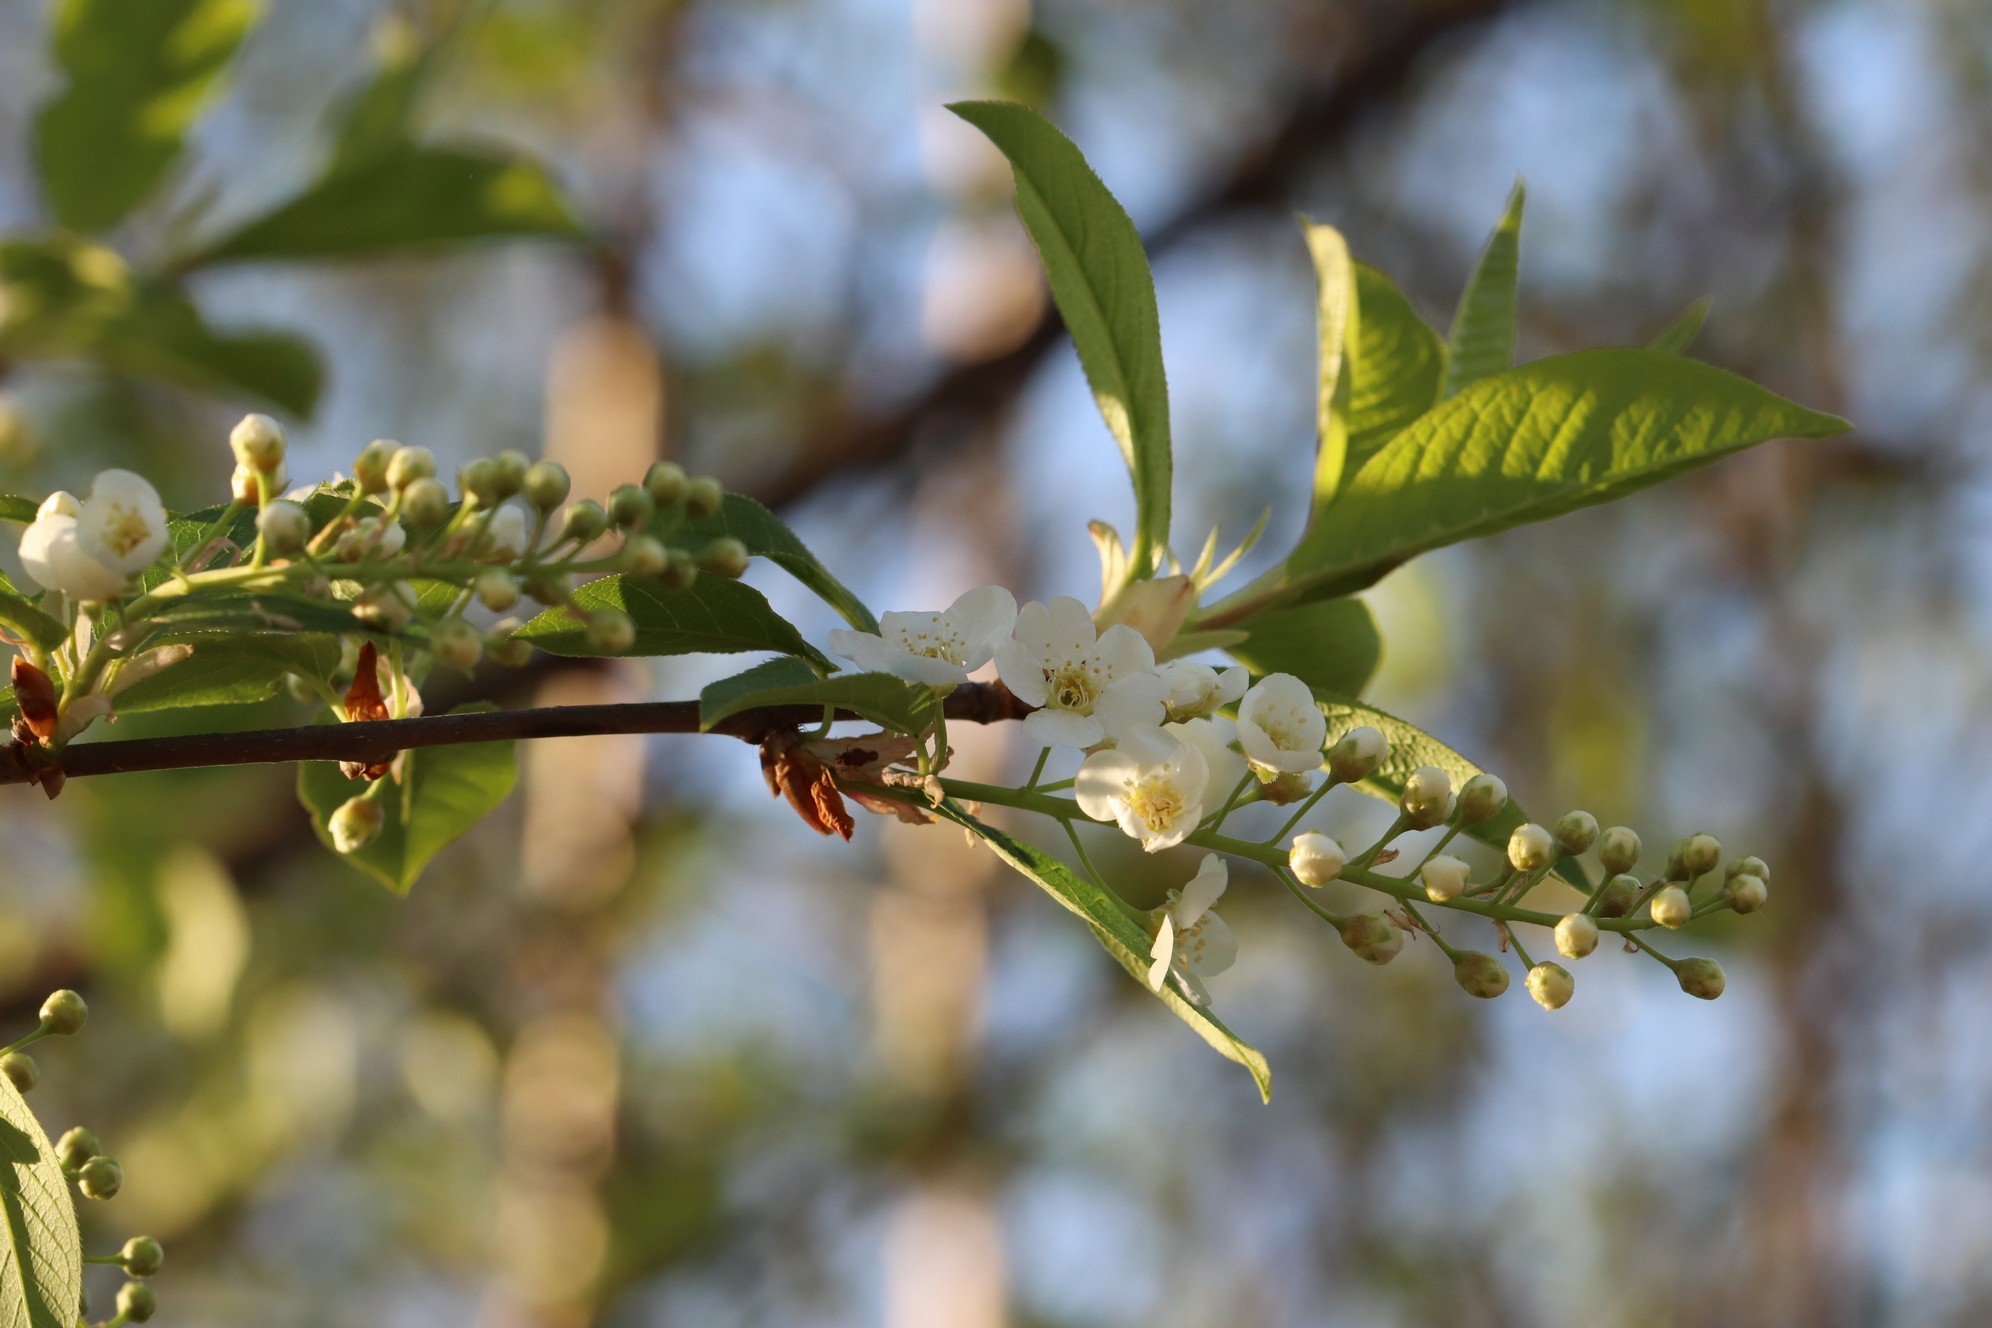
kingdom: Plantae
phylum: Tracheophyta
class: Magnoliopsida
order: Rosales
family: Rosaceae
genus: Prunus
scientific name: Prunus padus
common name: Bird cherry
